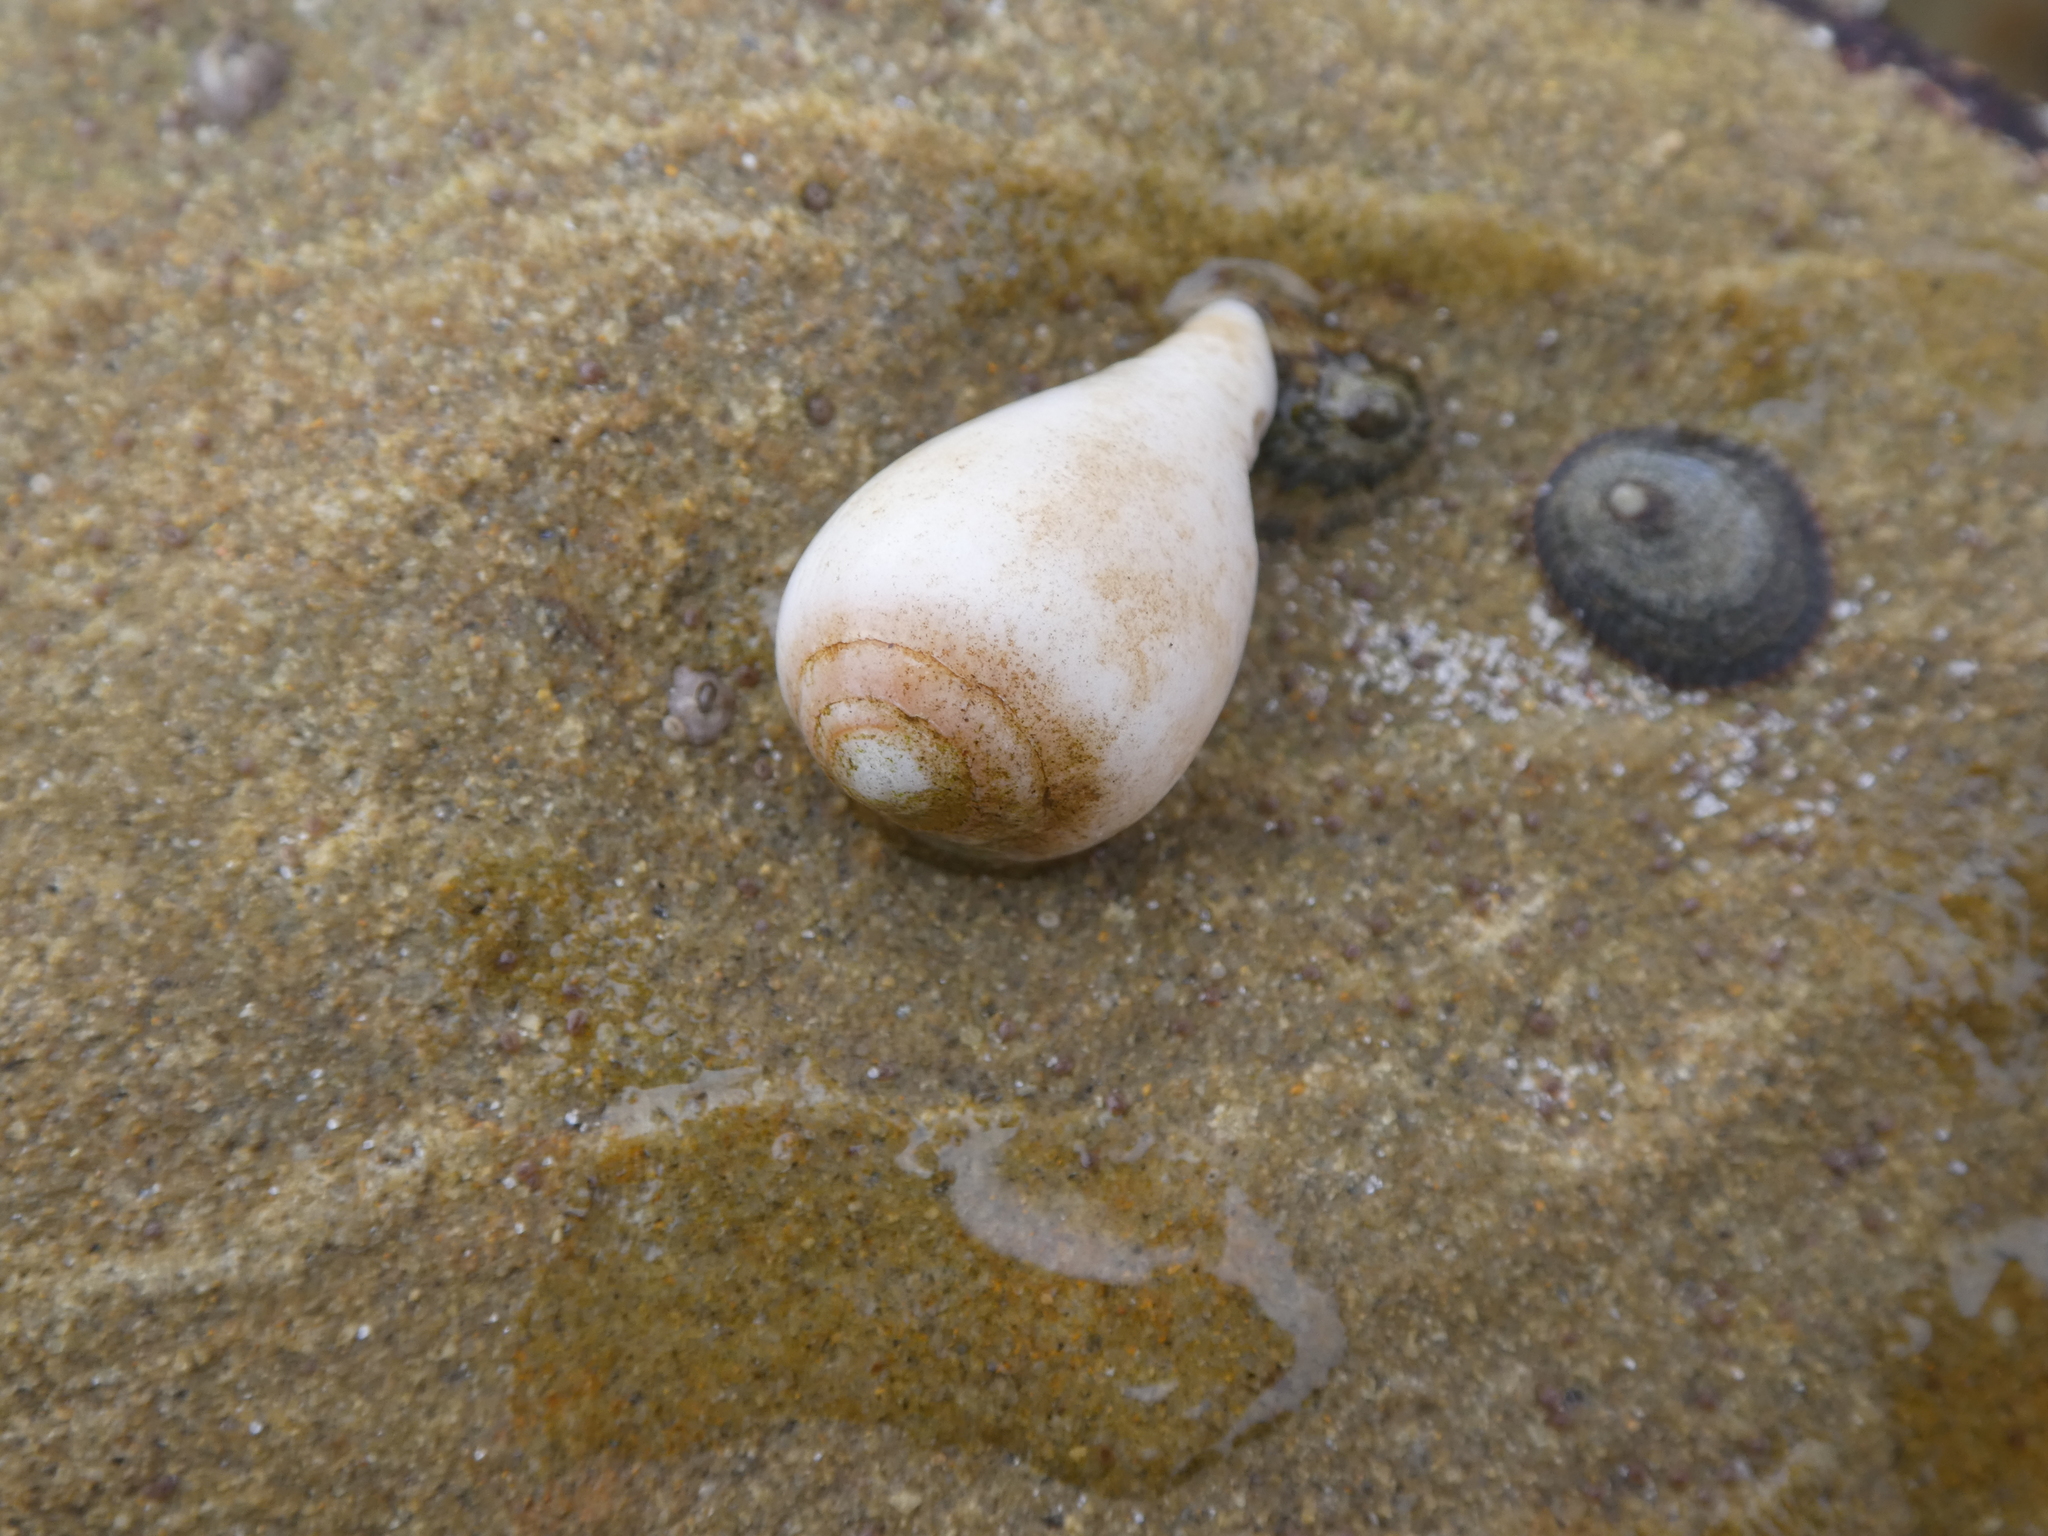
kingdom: Animalia
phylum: Mollusca
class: Gastropoda
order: Neogastropoda
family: Conidae
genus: Californiconus
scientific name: Californiconus californicus
